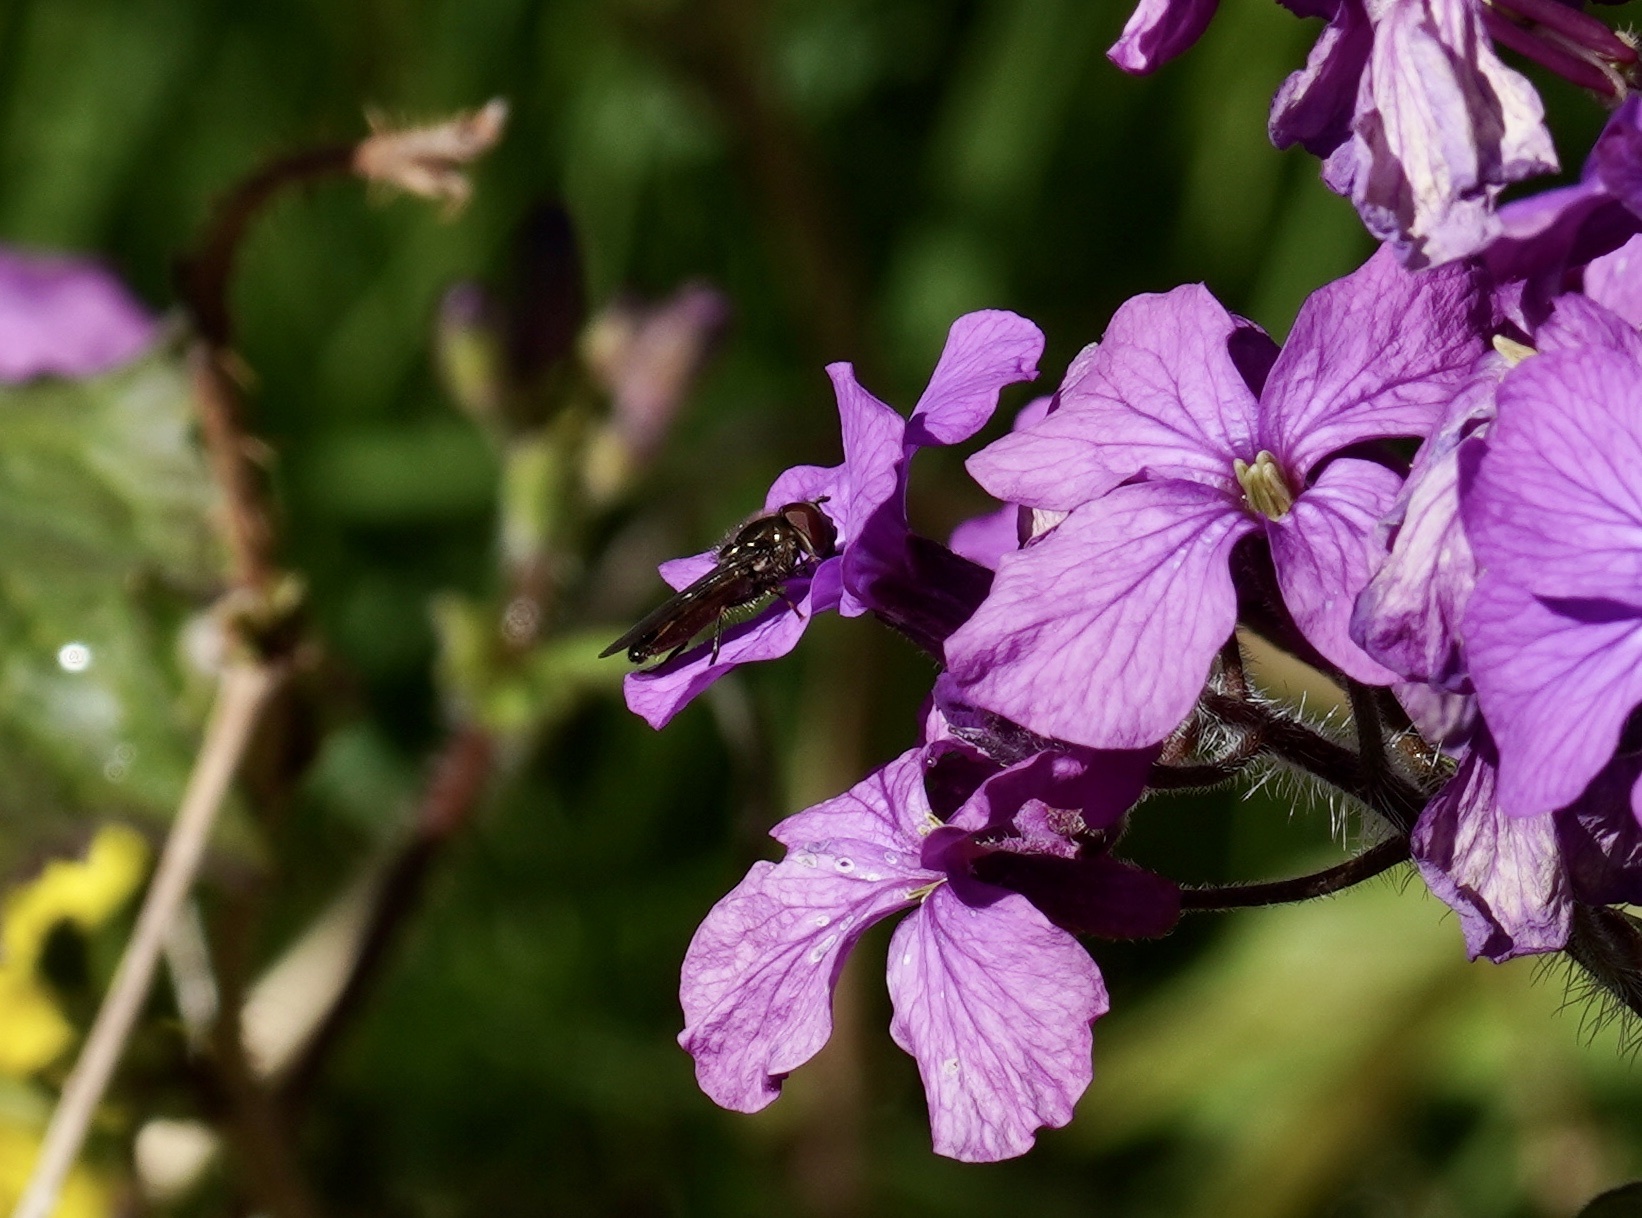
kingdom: Animalia
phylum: Arthropoda
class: Insecta
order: Diptera
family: Syrphidae
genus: Platycheirus
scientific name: Platycheirus
